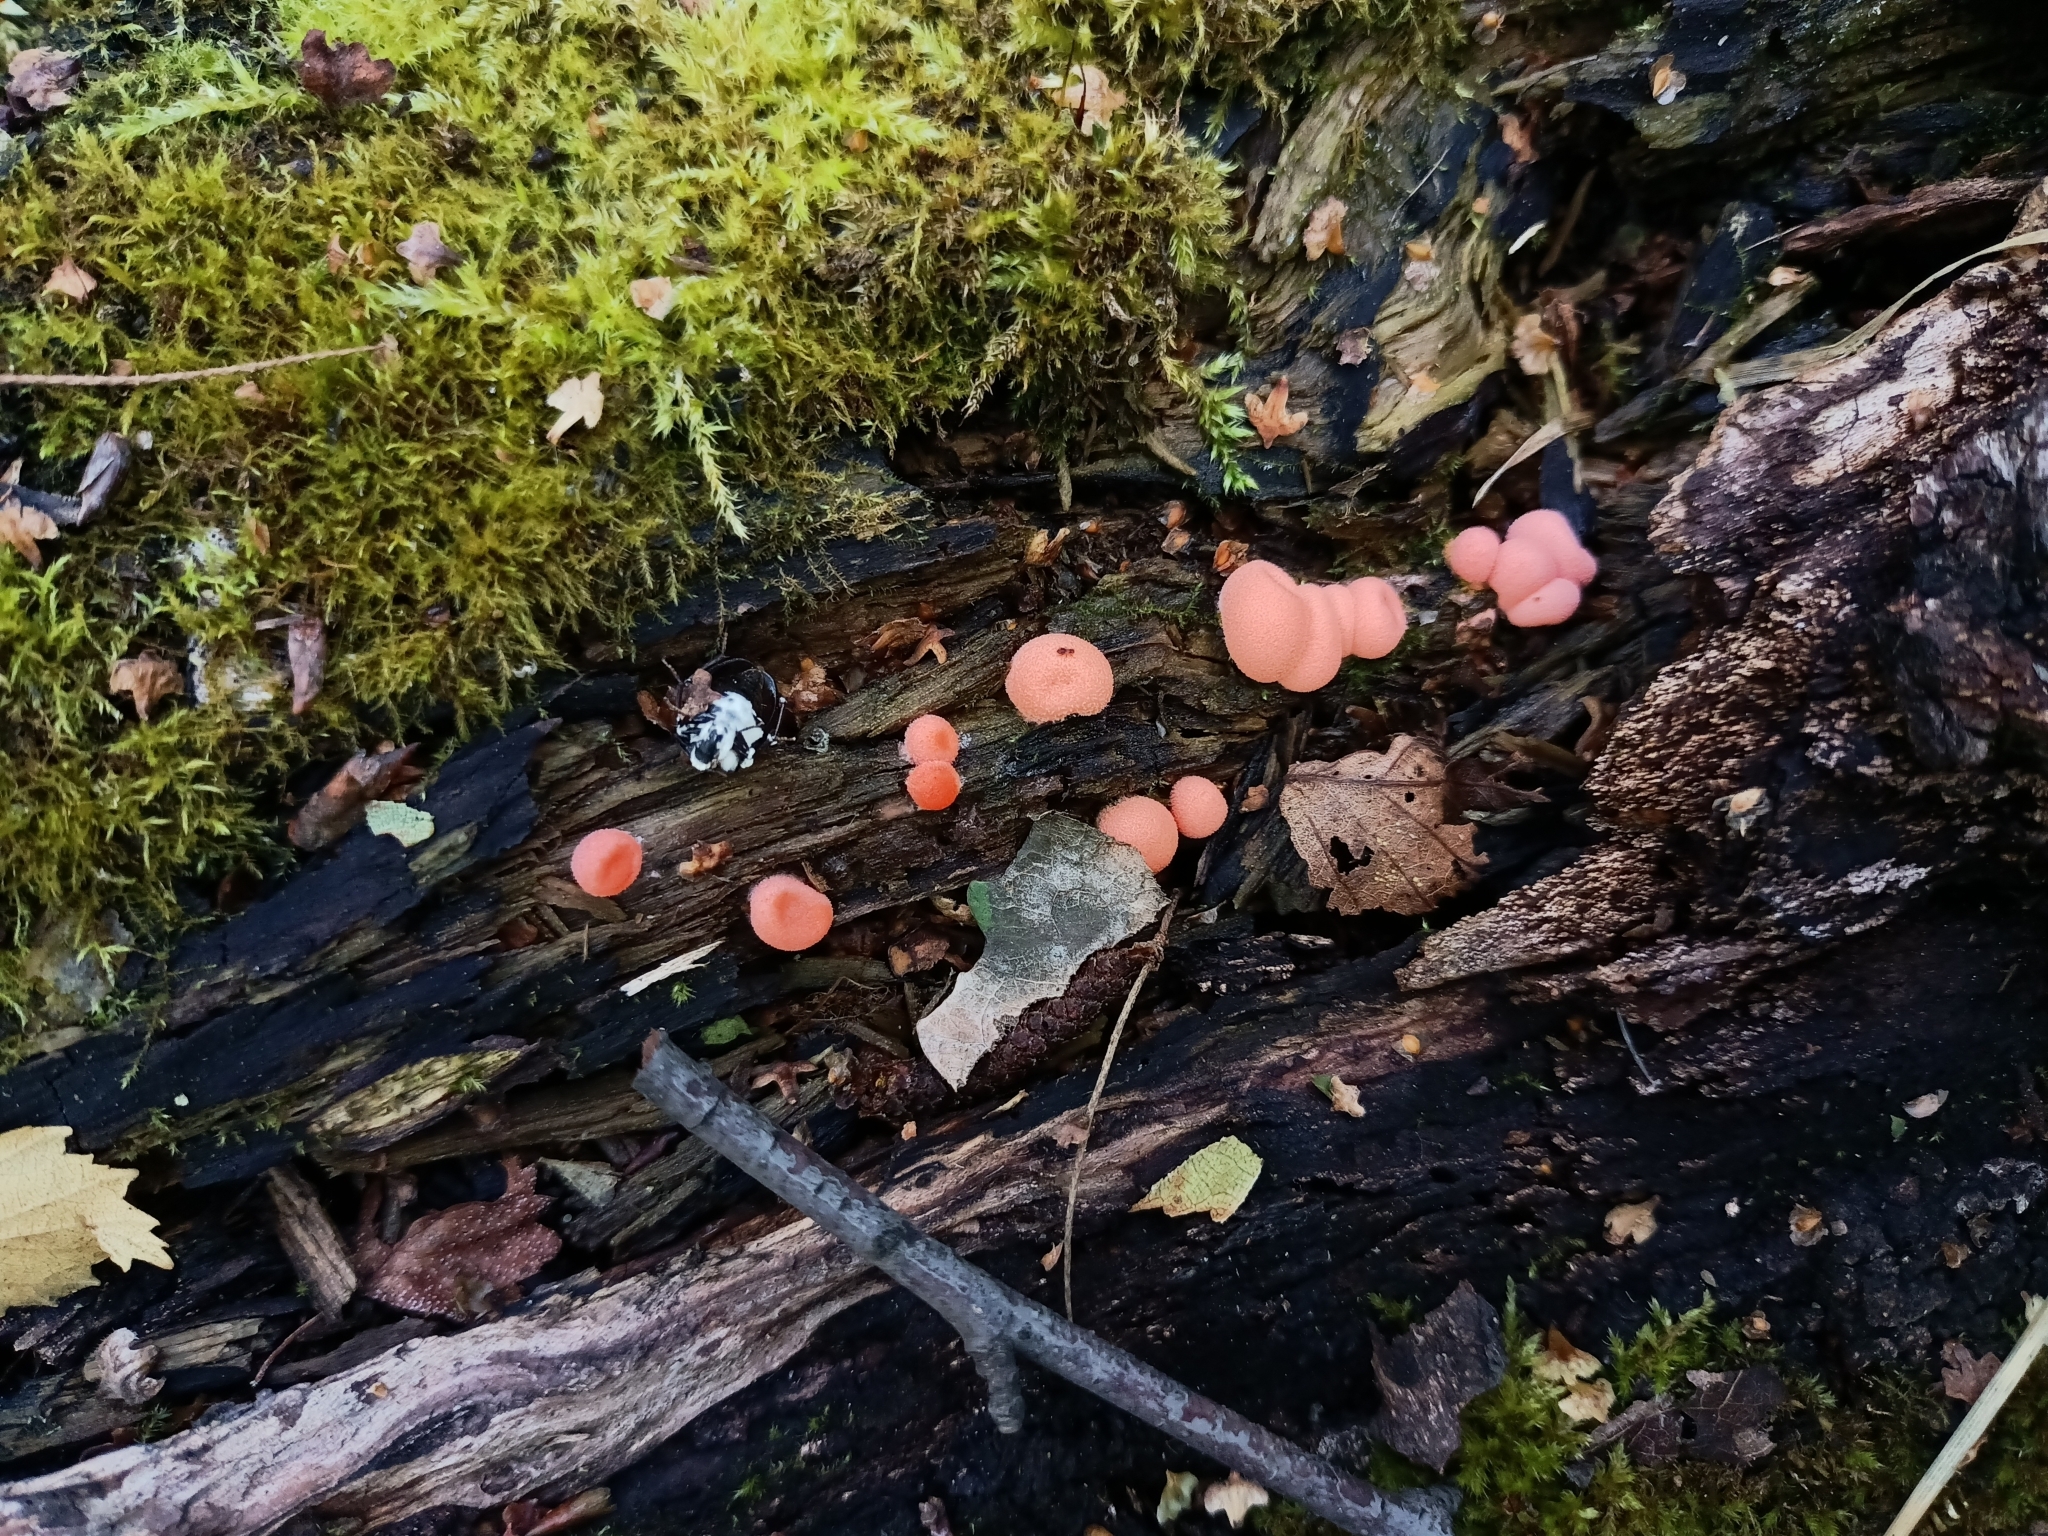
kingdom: Protozoa
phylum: Mycetozoa
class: Myxomycetes
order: Cribrariales
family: Tubiferaceae
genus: Lycogala
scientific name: Lycogala epidendrum
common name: Wolf's milk
